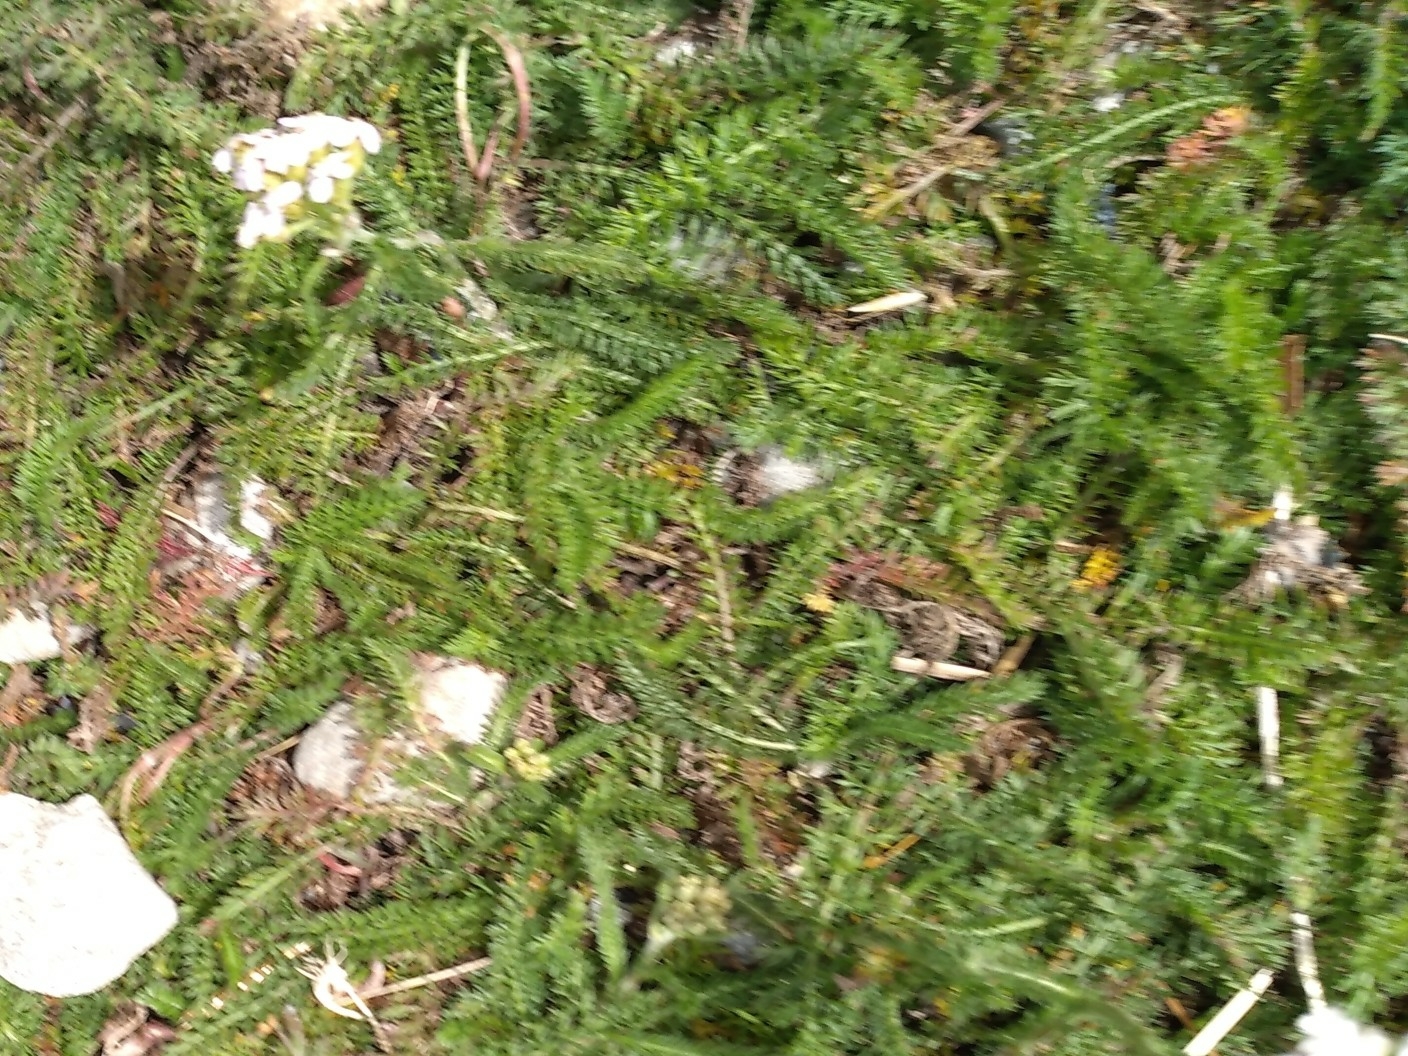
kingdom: Plantae
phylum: Tracheophyta
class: Magnoliopsida
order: Asterales
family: Asteraceae
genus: Achillea
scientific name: Achillea millefolium
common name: Yarrow
